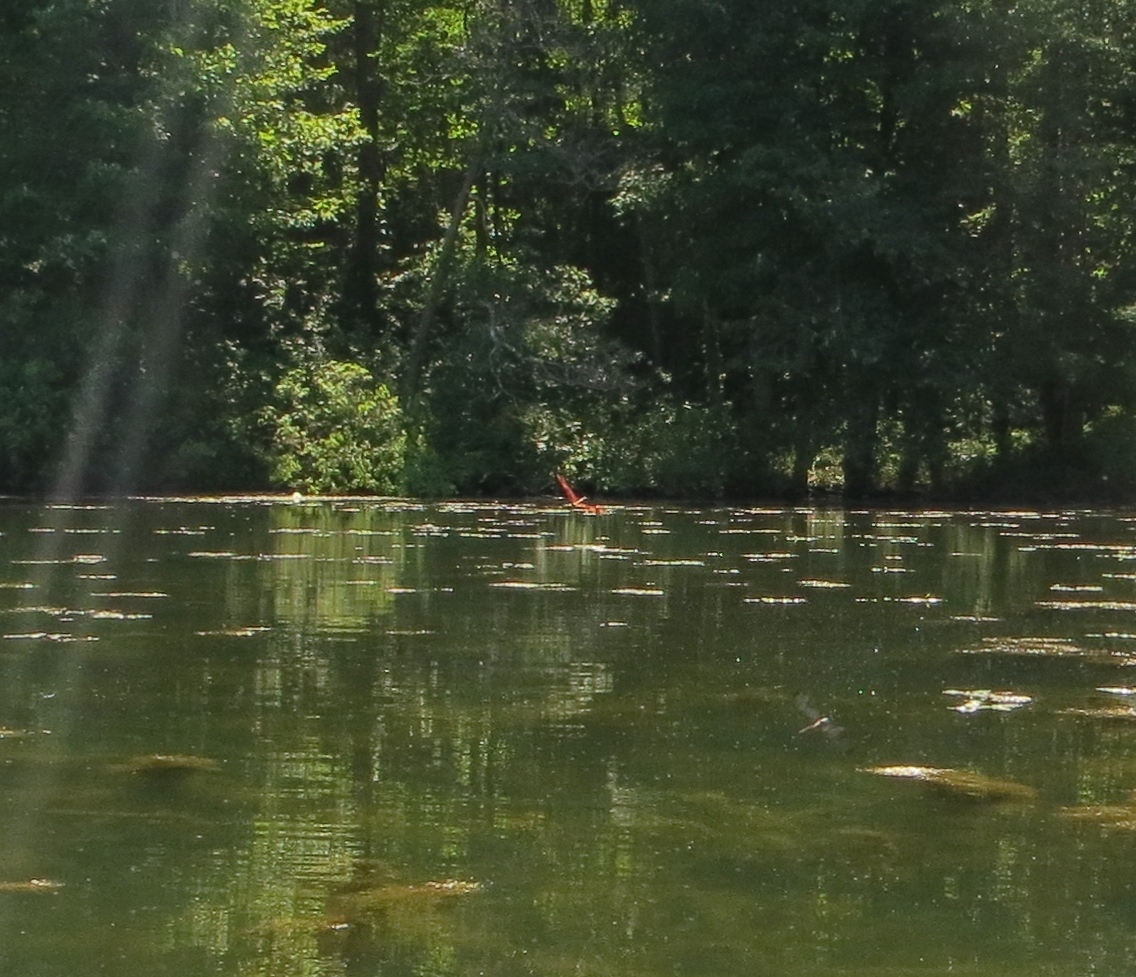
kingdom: Animalia
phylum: Arthropoda
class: Insecta
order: Odonata
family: Libellulidae
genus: Celithemis
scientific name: Celithemis eponina
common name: Halloween pennant
